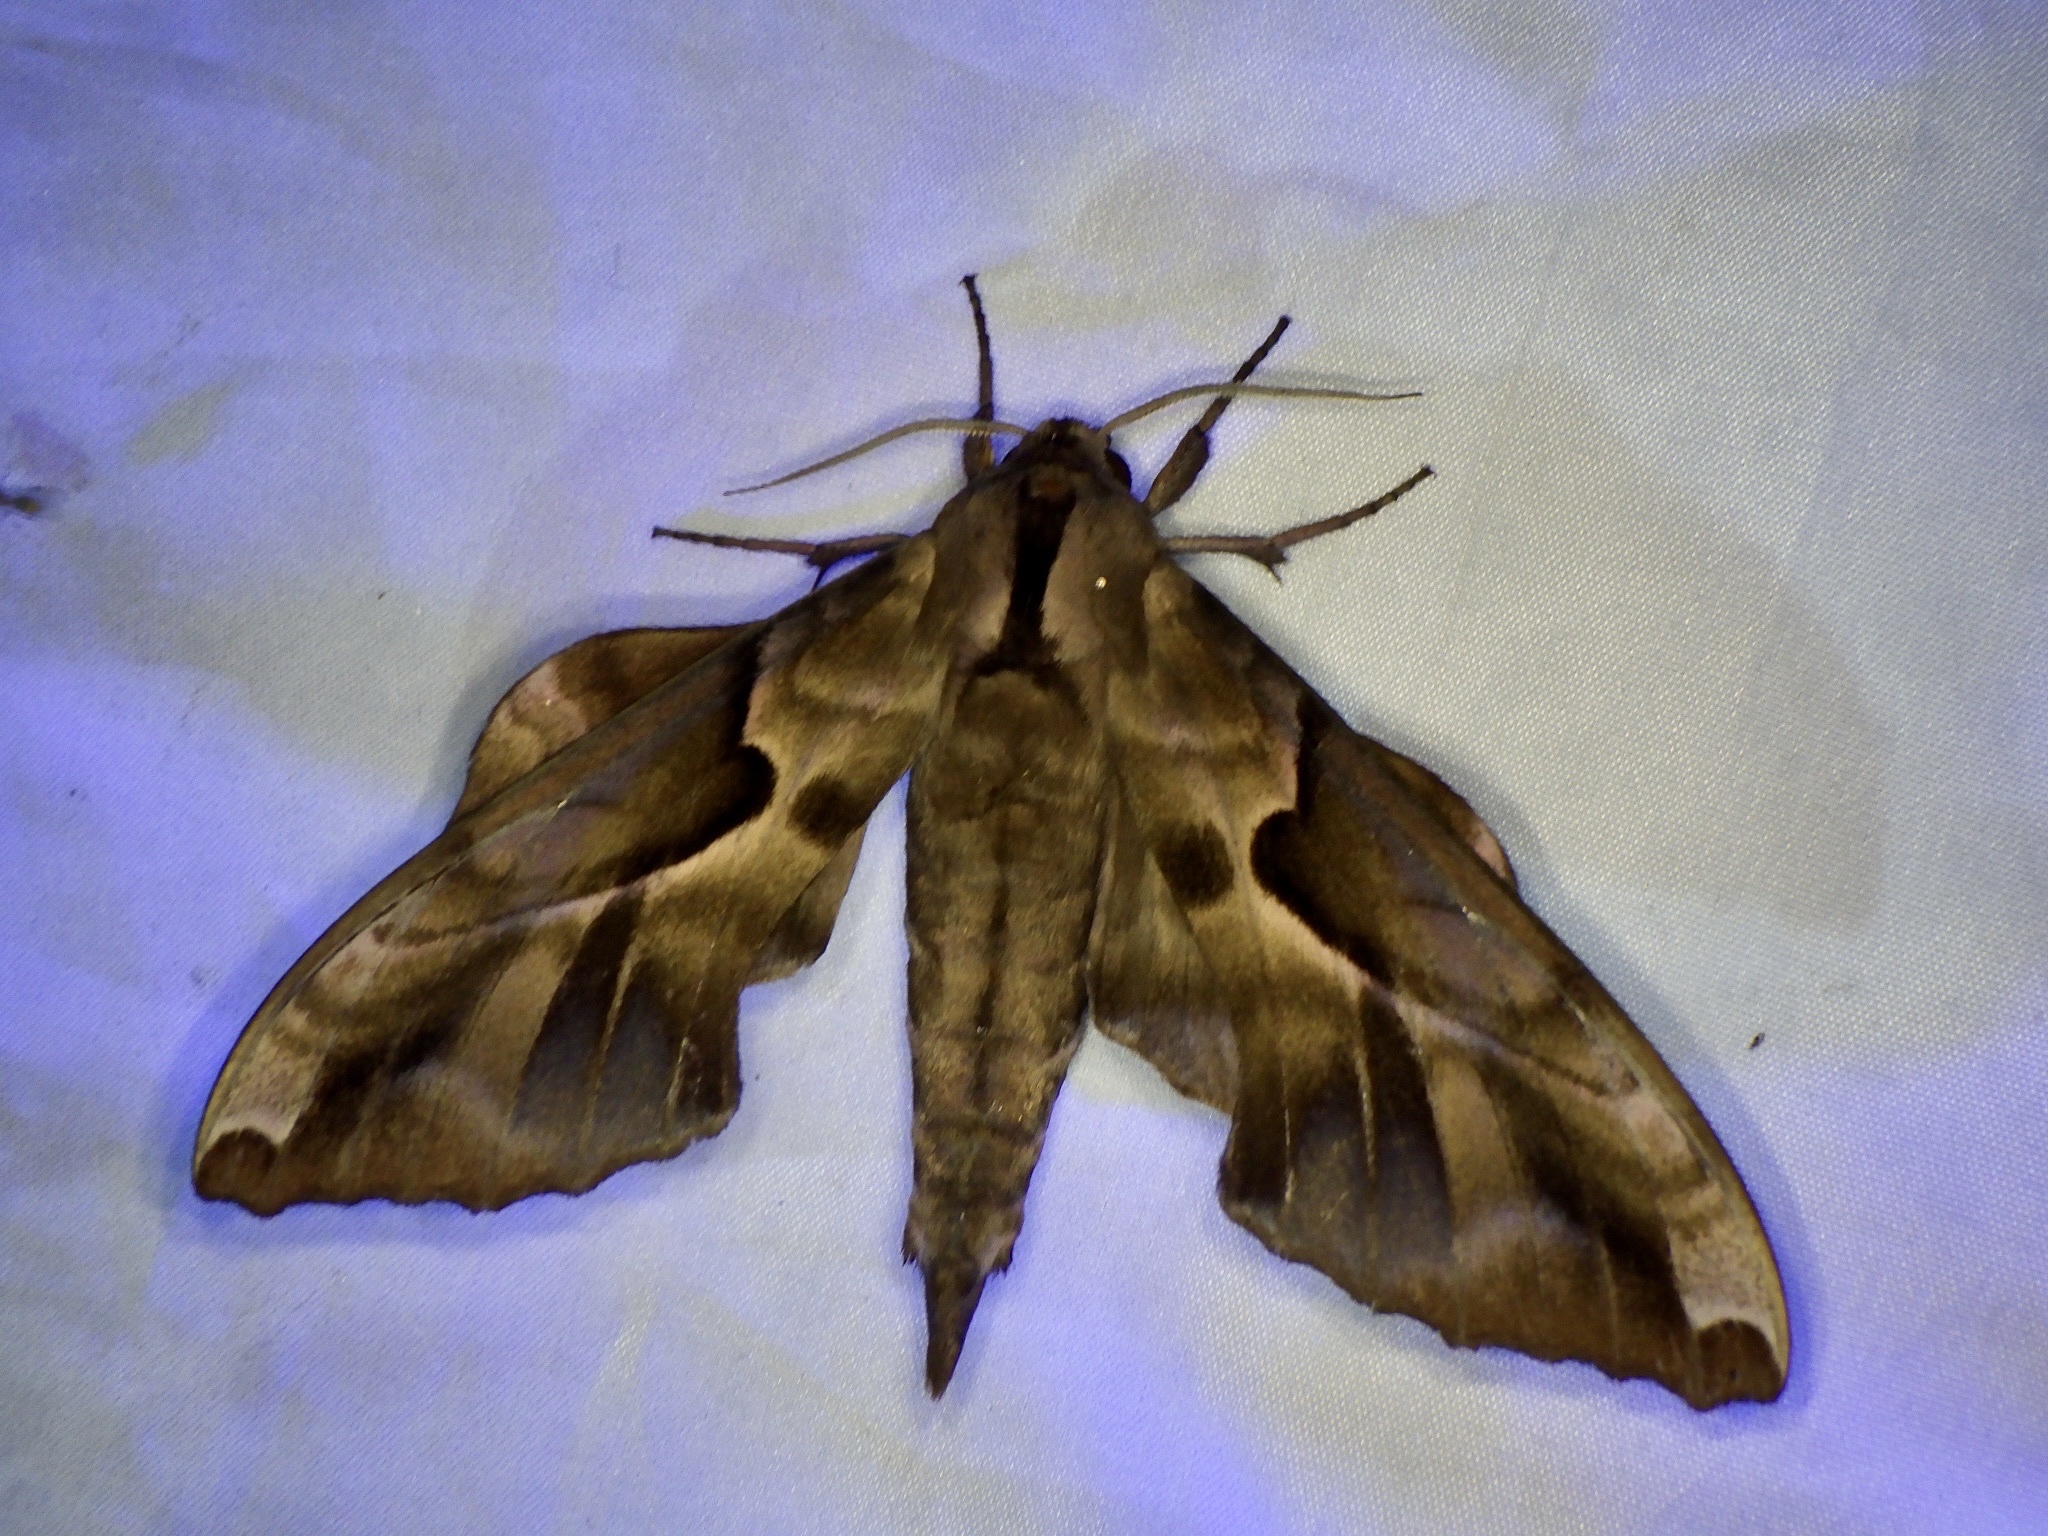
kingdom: Animalia
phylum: Arthropoda
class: Insecta
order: Lepidoptera
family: Sphingidae
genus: Phyllosphingia
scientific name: Phyllosphingia dissimilis
